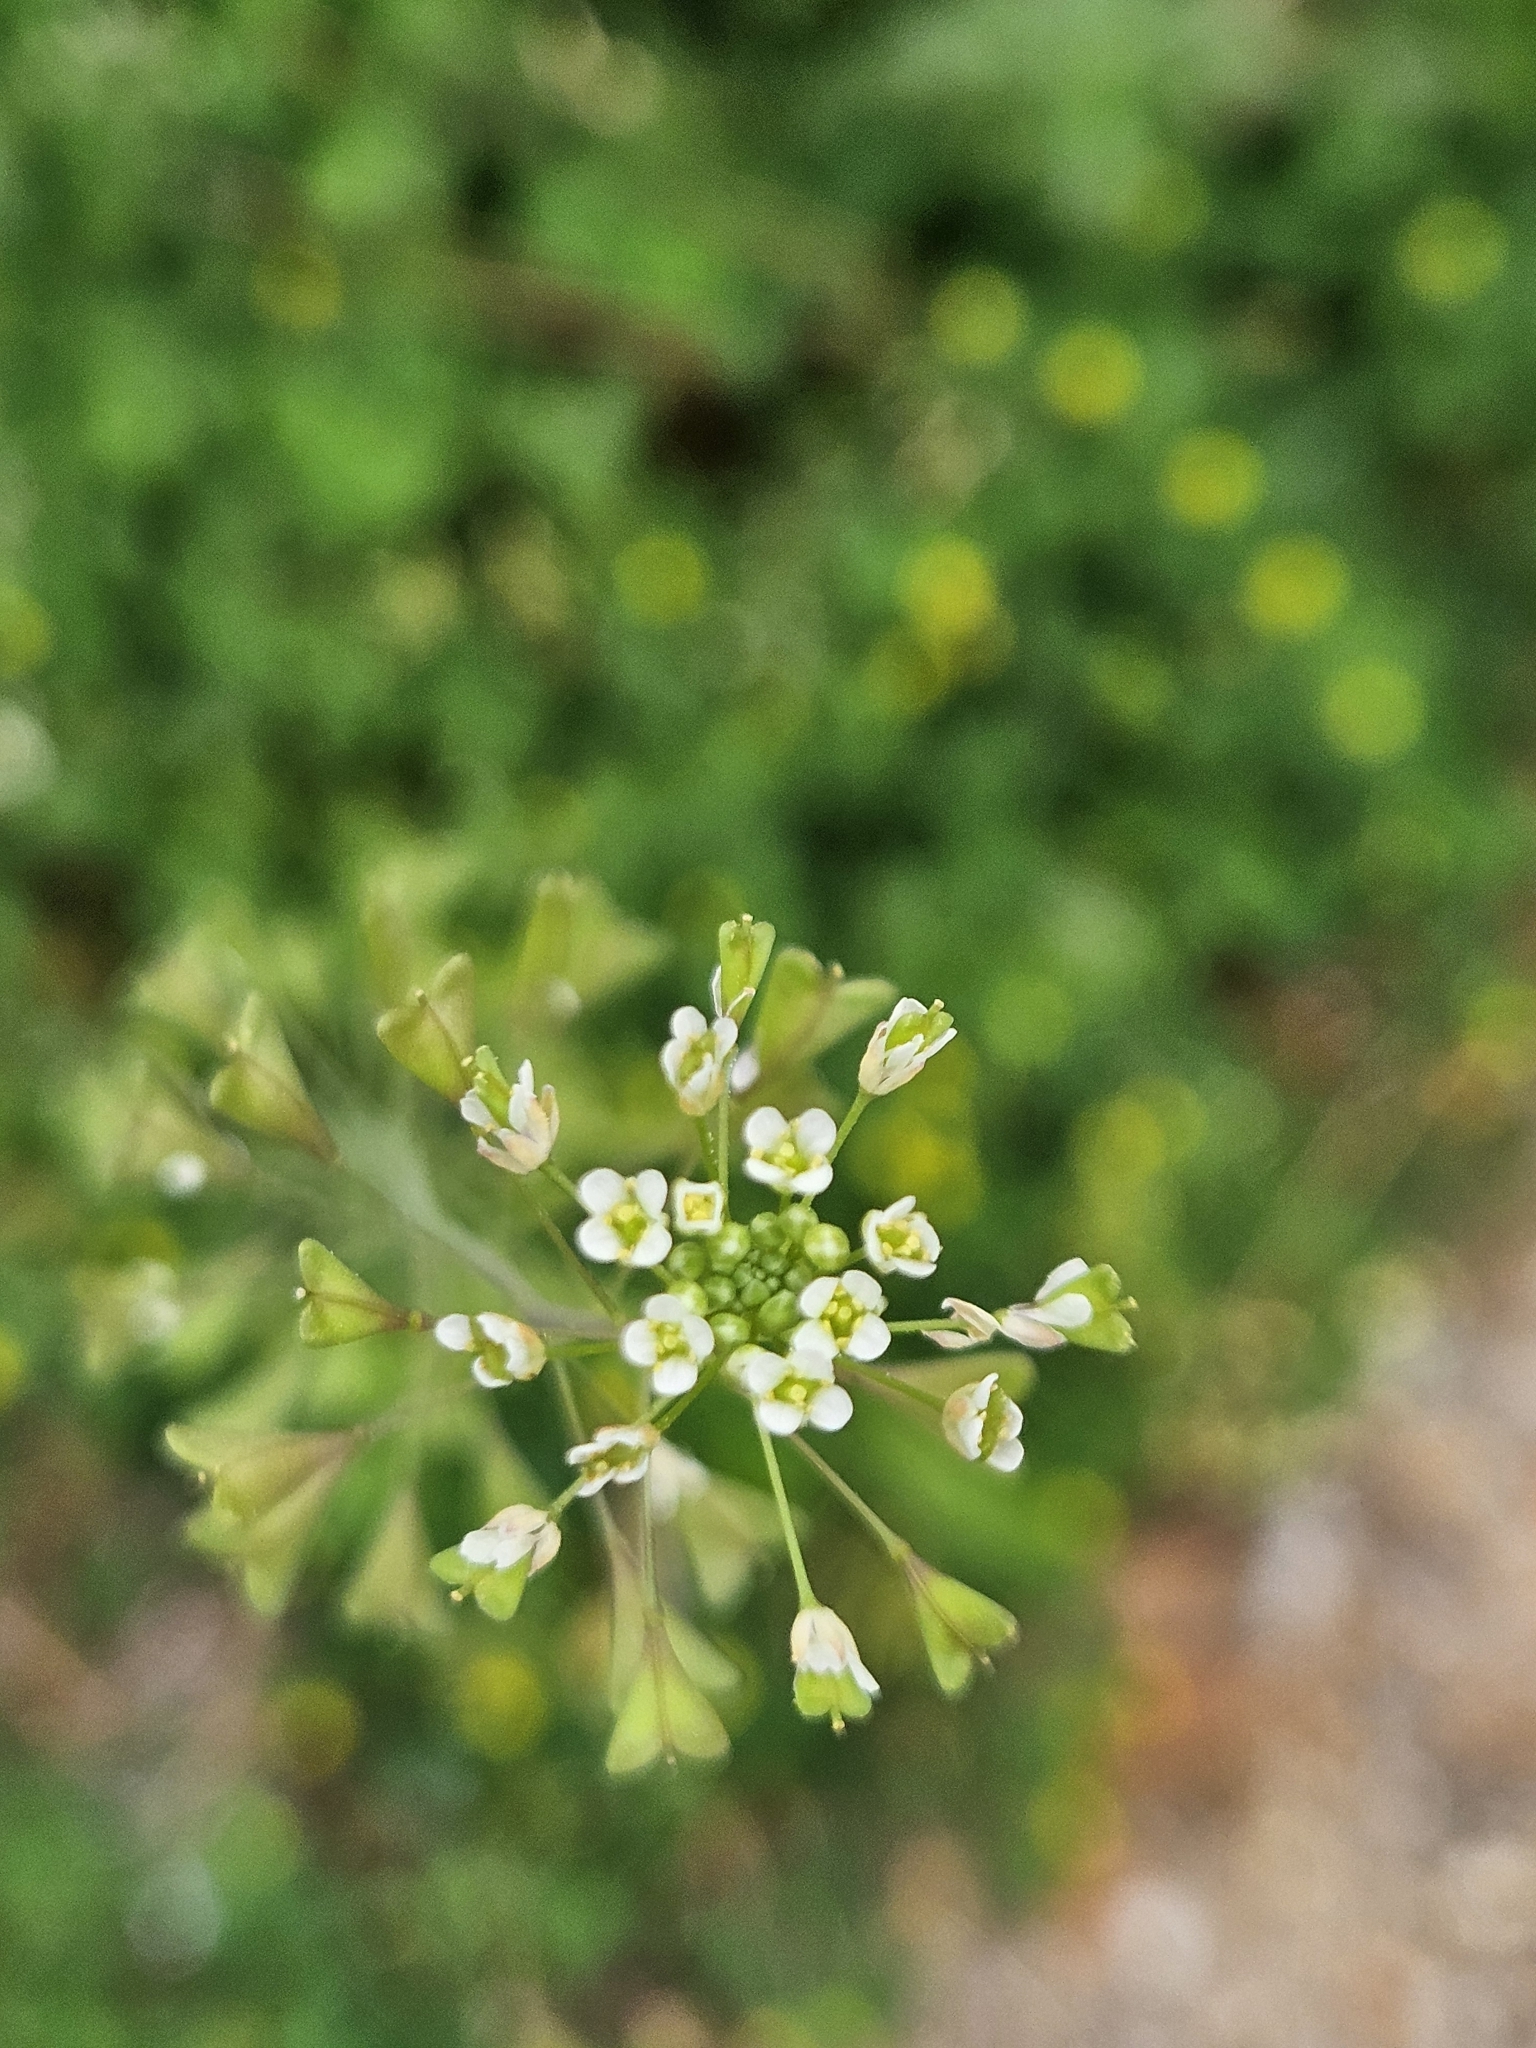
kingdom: Plantae
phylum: Tracheophyta
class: Magnoliopsida
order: Brassicales
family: Brassicaceae
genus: Capsella
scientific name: Capsella bursa-pastoris
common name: Shepherd's purse
